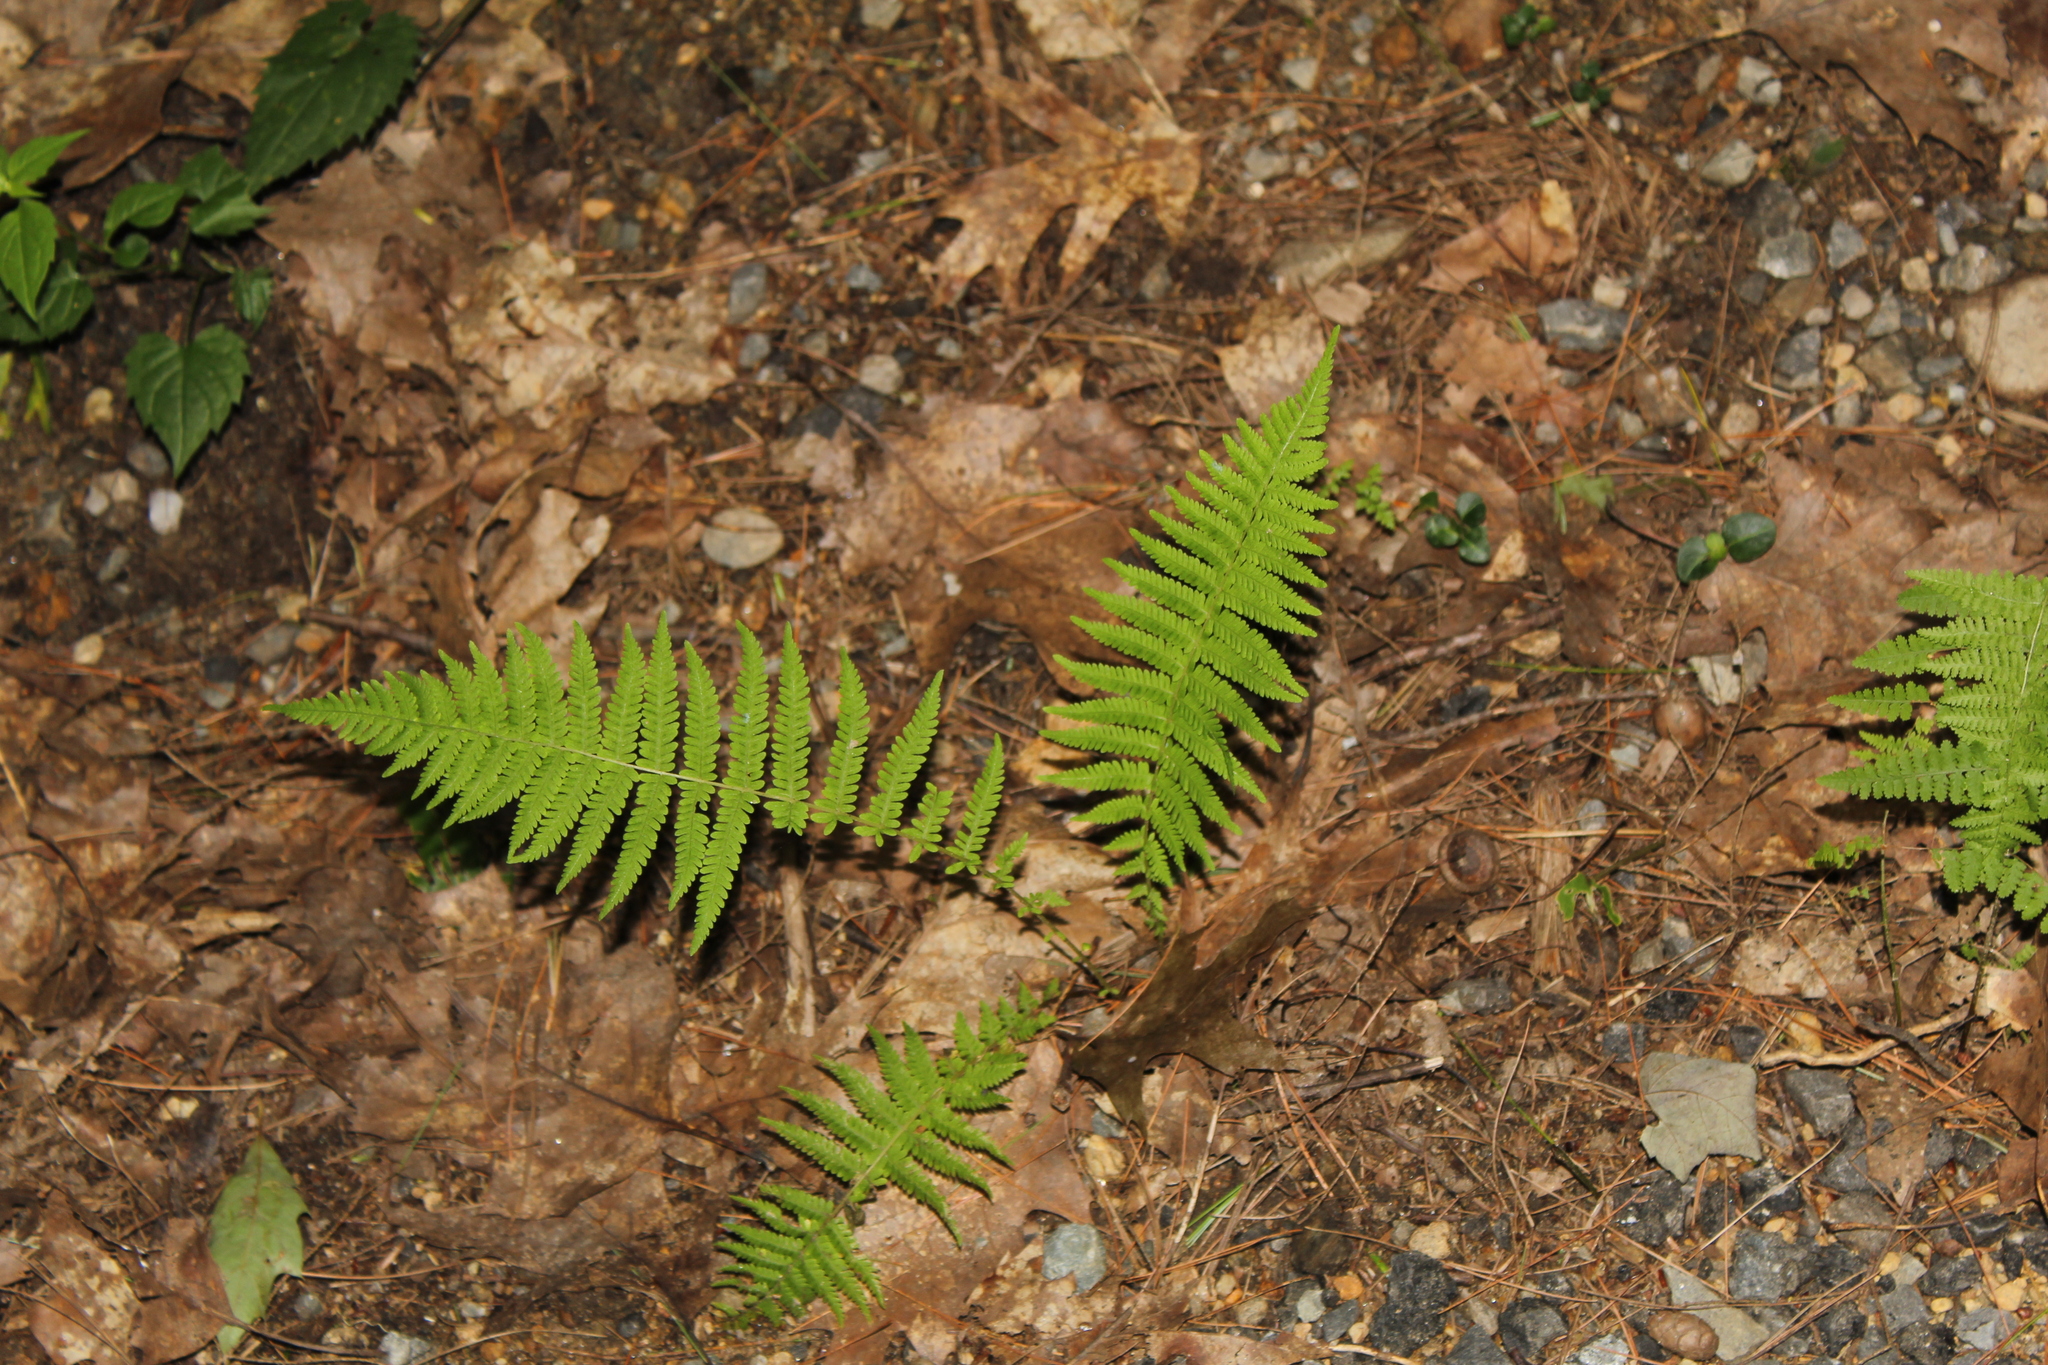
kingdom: Plantae
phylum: Tracheophyta
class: Polypodiopsida
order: Polypodiales
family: Thelypteridaceae
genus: Amauropelta
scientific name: Amauropelta noveboracensis
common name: New york fern
